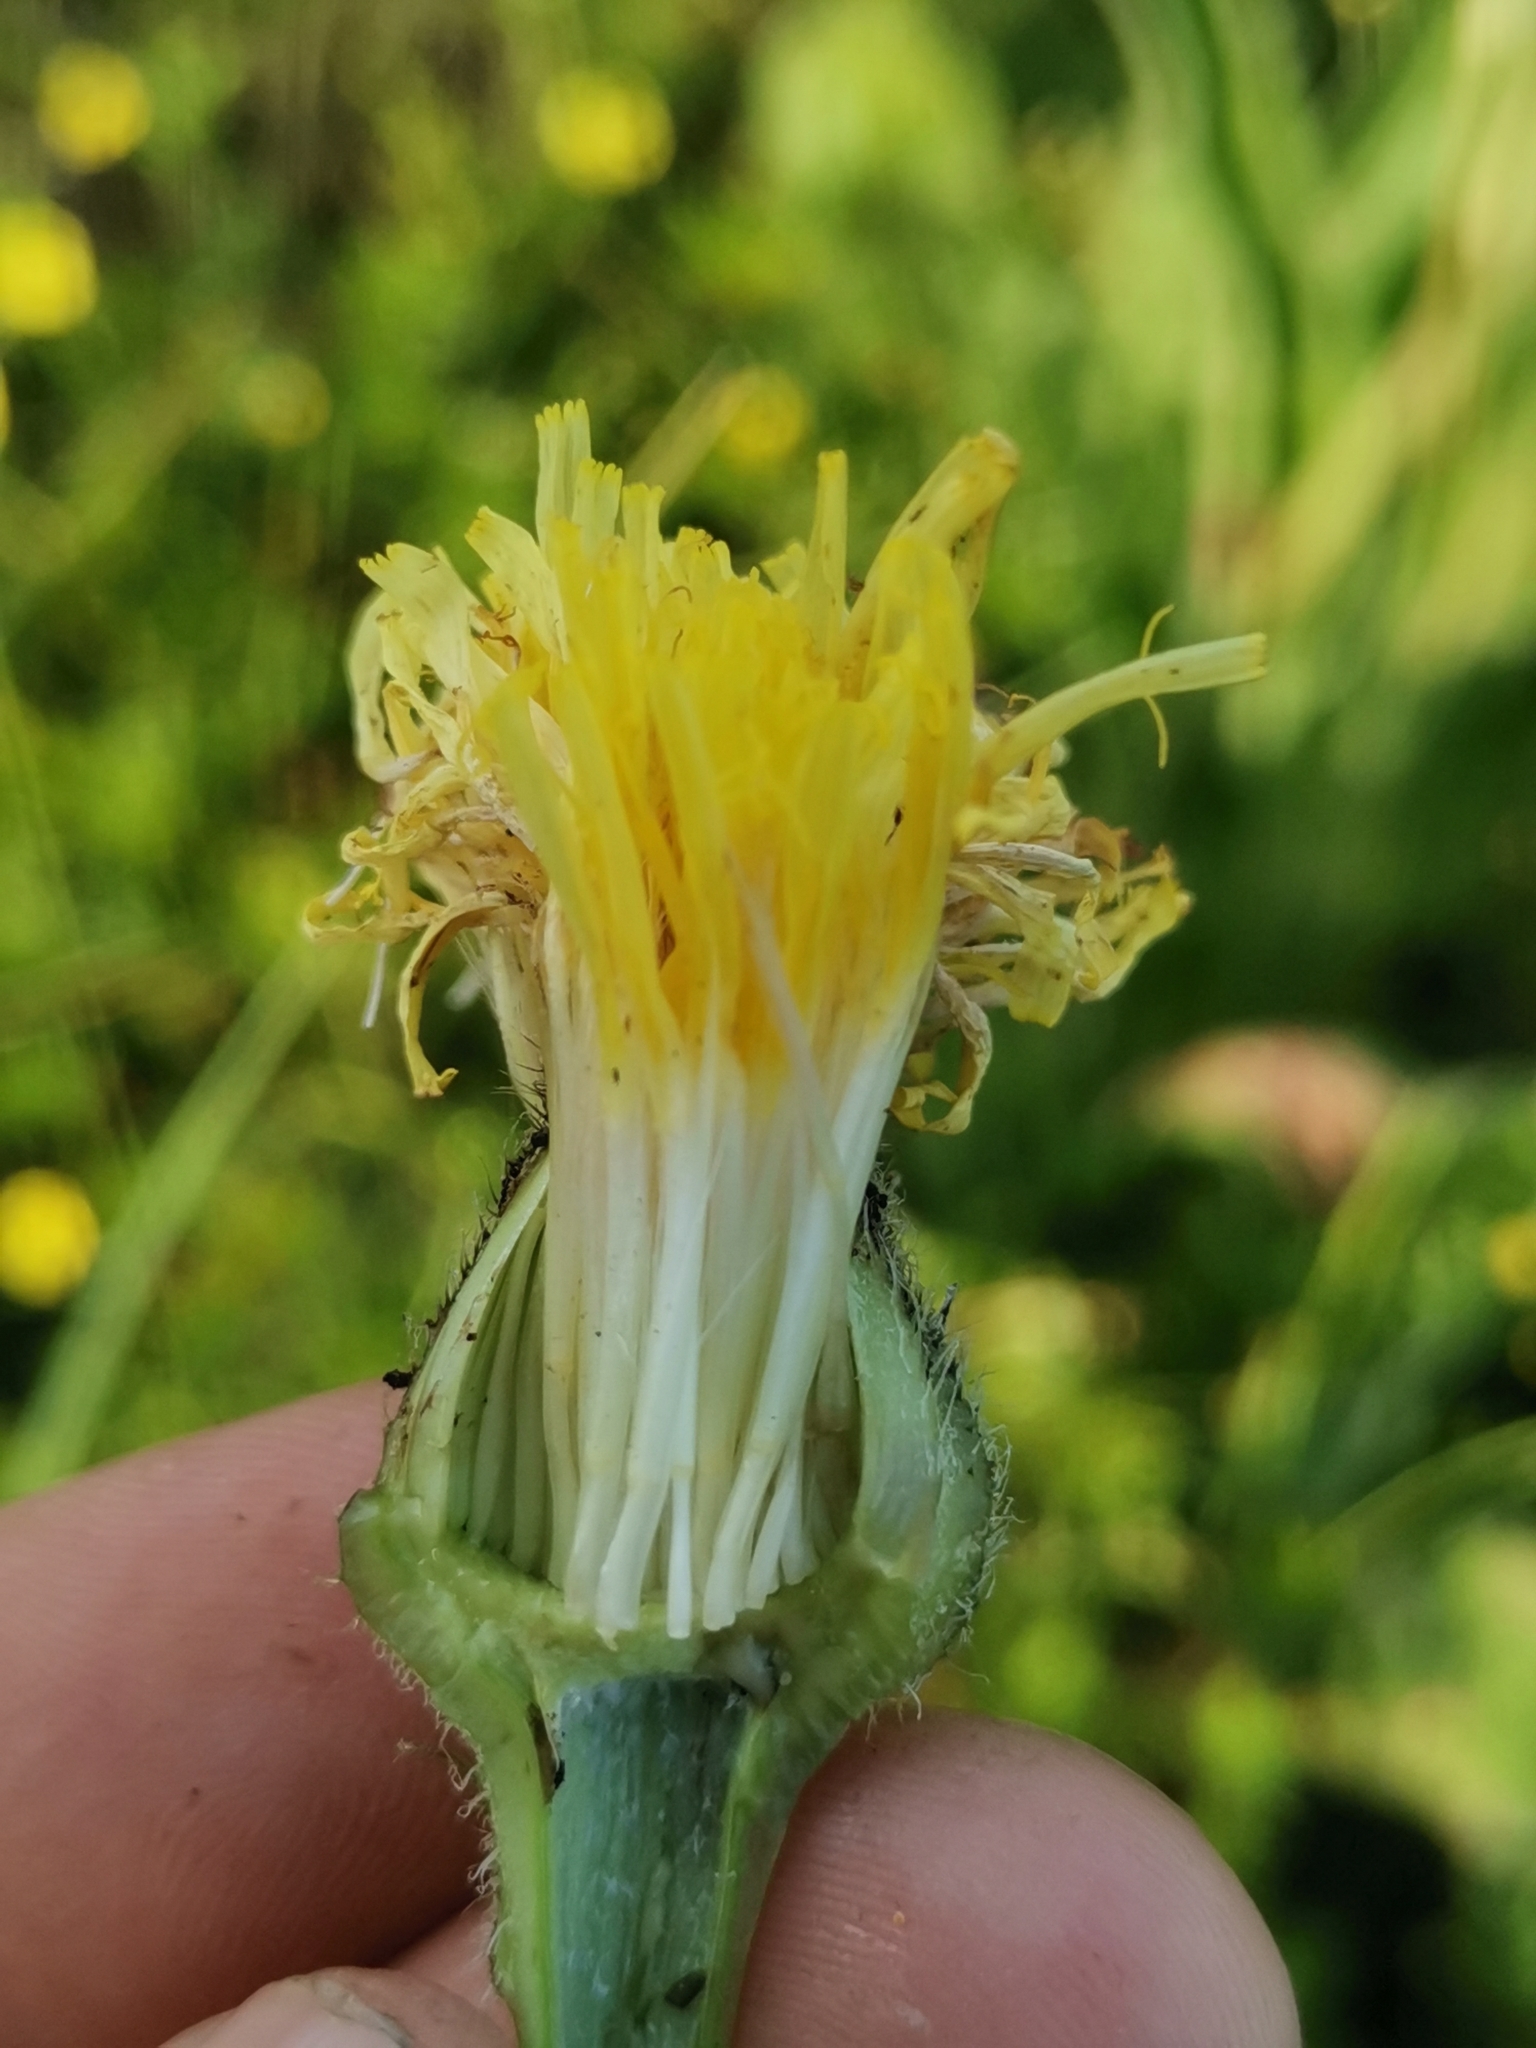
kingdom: Plantae
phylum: Tracheophyta
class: Magnoliopsida
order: Asterales
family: Asteraceae
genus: Trommsdorffia
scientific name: Trommsdorffia maculata
